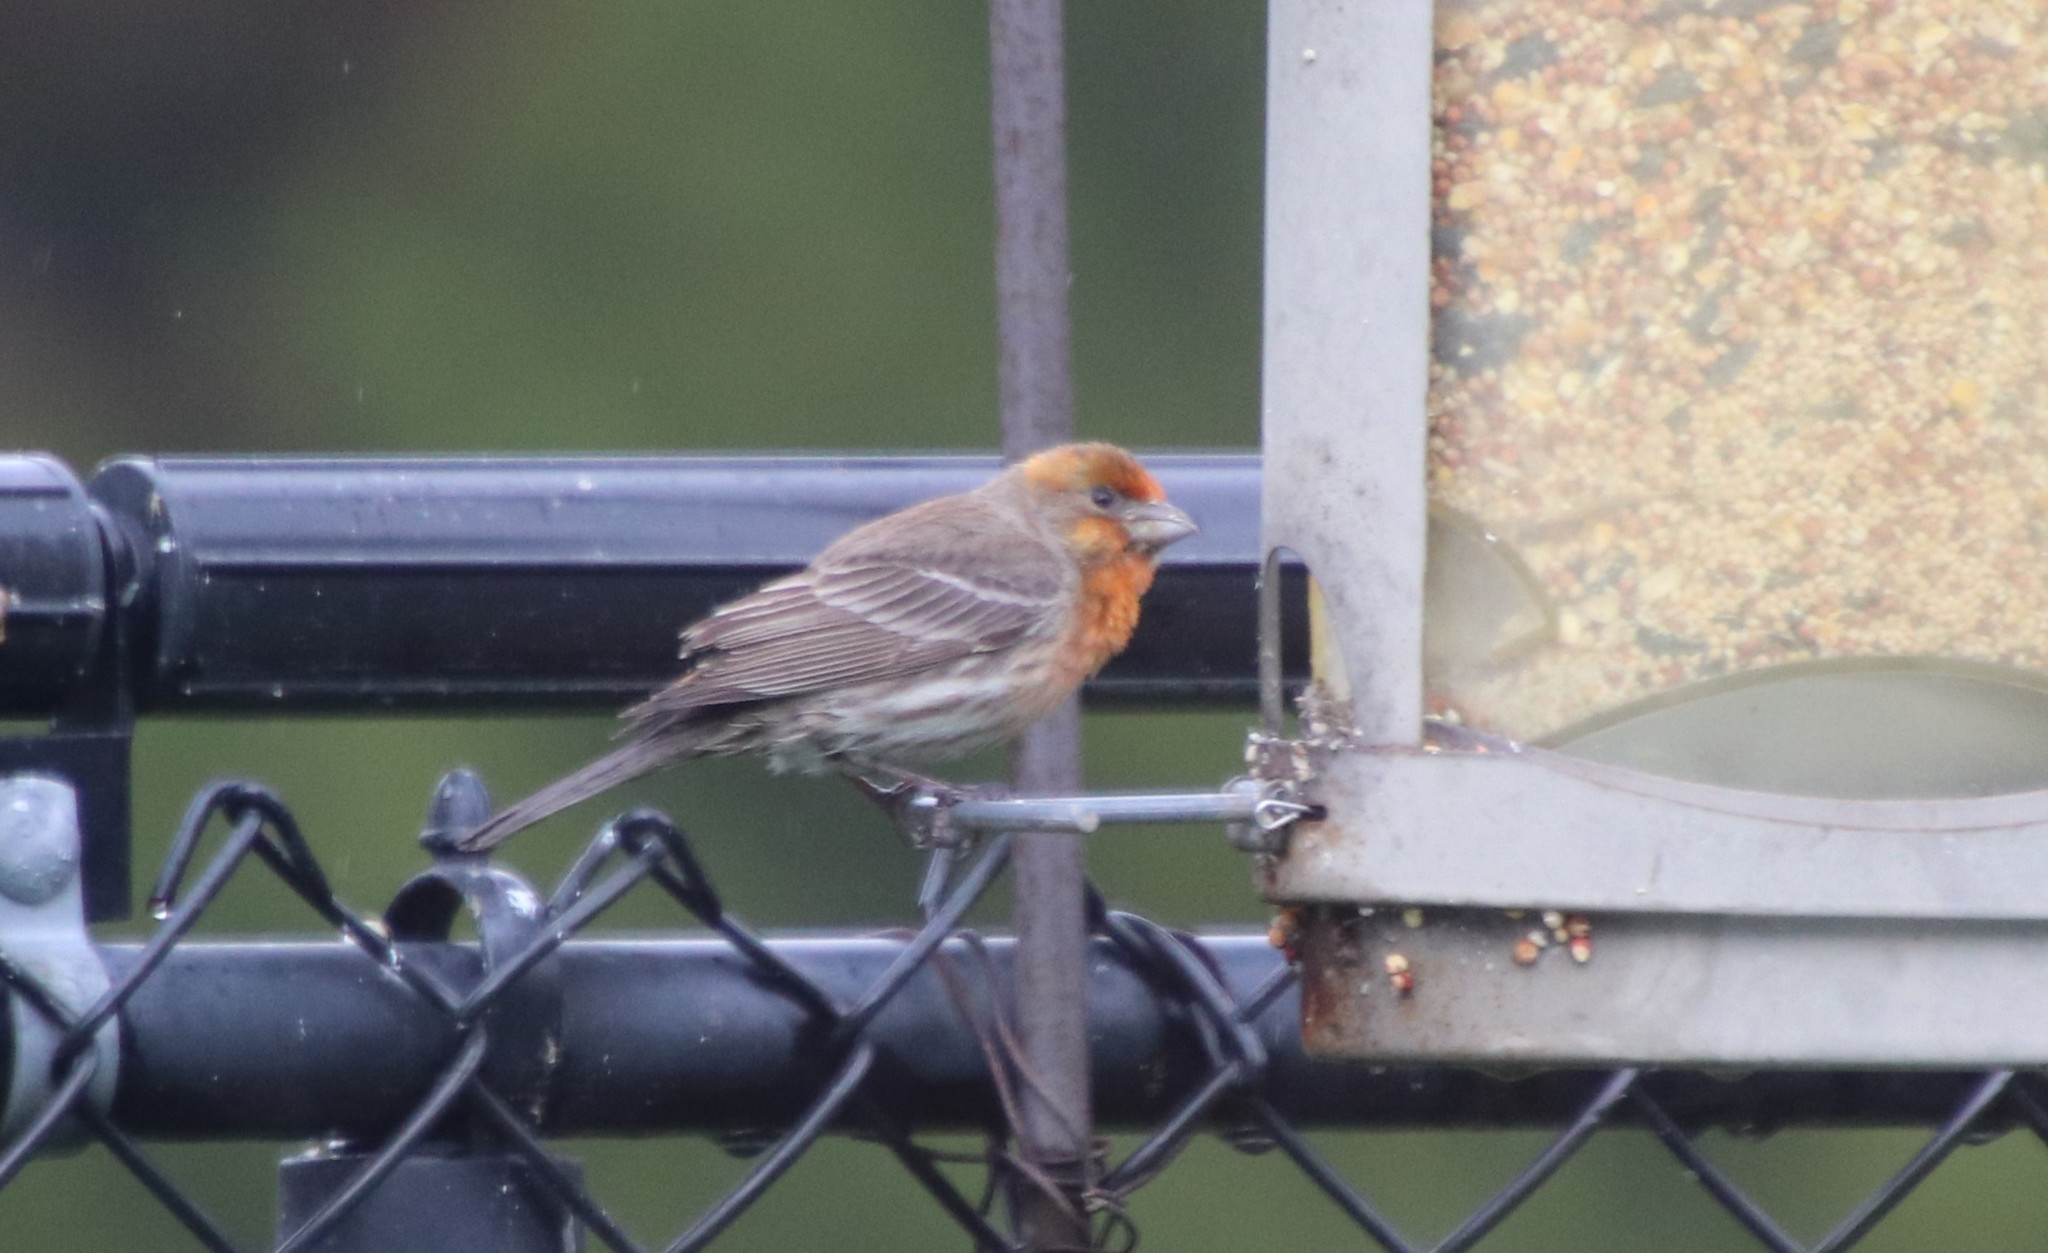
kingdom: Animalia
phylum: Chordata
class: Aves
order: Passeriformes
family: Fringillidae
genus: Haemorhous
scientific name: Haemorhous mexicanus
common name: House finch
